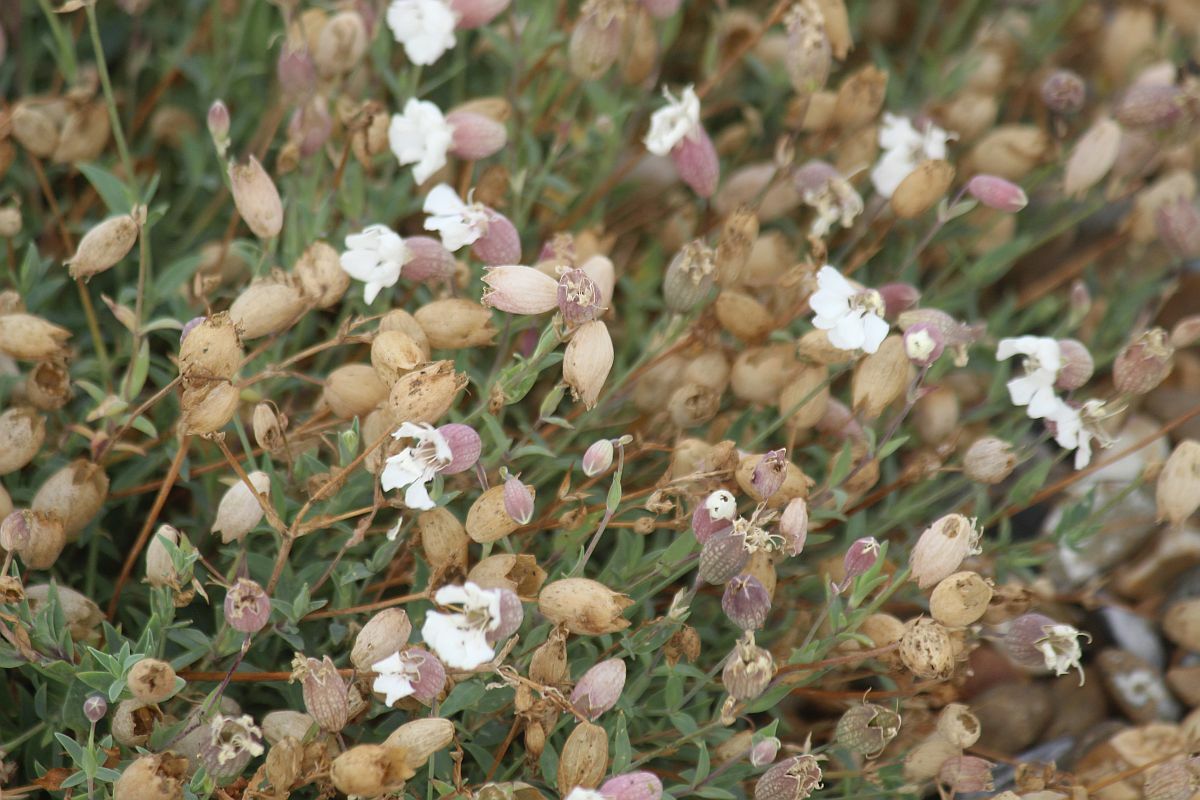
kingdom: Plantae
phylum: Tracheophyta
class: Magnoliopsida
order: Caryophyllales
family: Caryophyllaceae
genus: Silene
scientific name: Silene uniflora
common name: Sea campion
